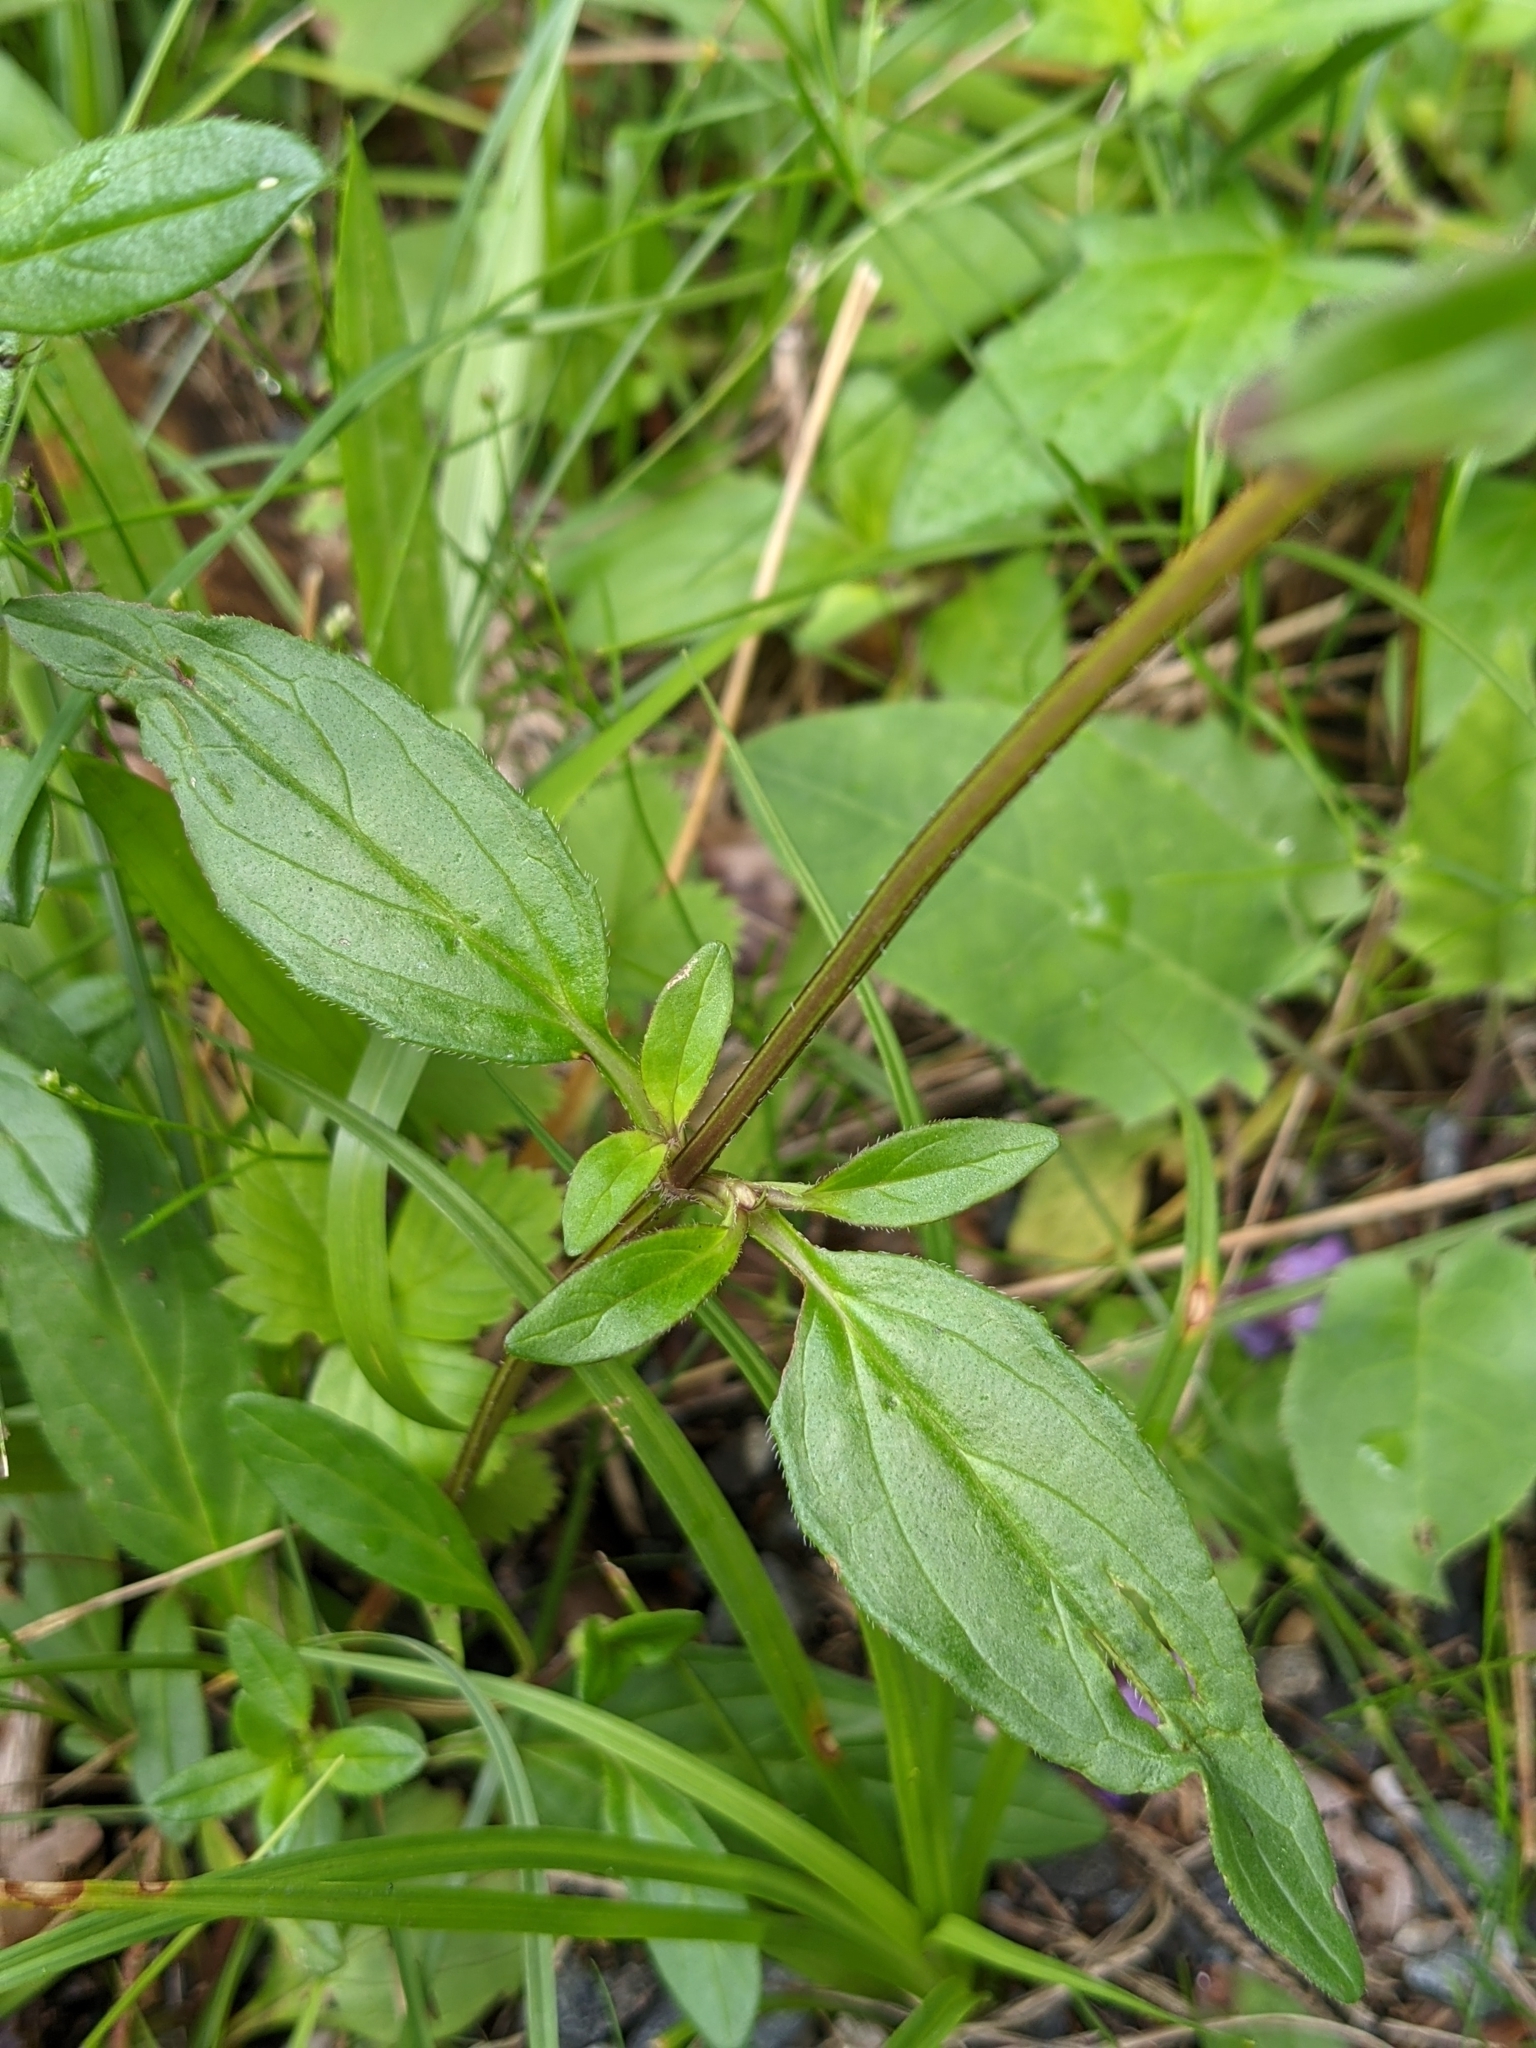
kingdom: Plantae
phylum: Tracheophyta
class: Magnoliopsida
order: Lamiales
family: Lamiaceae
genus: Prunella
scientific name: Prunella grandiflora
